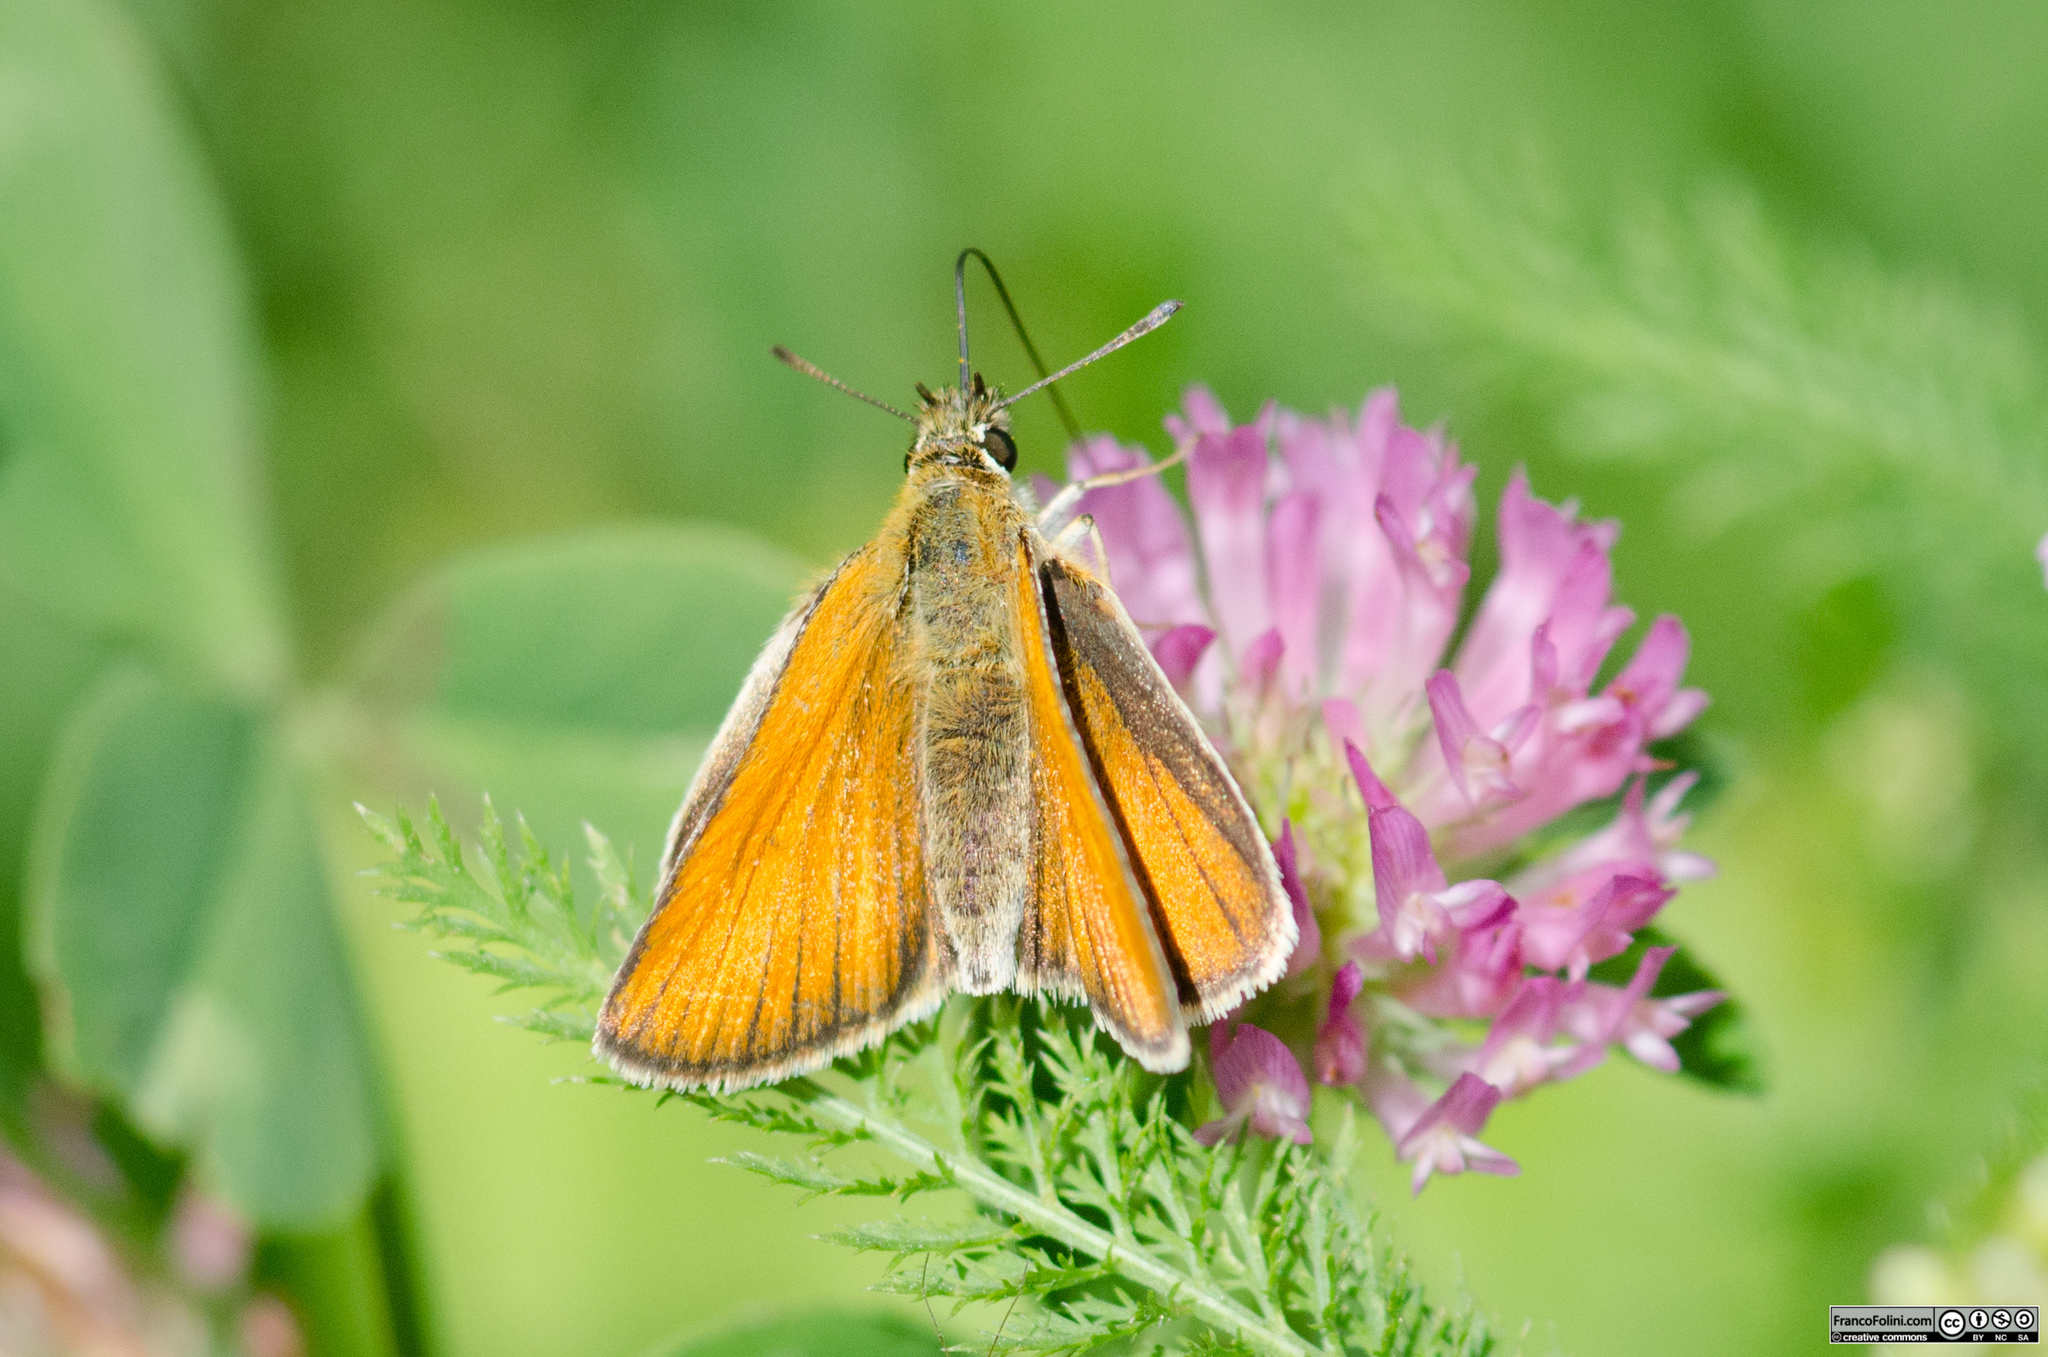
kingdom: Animalia
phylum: Arthropoda
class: Insecta
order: Lepidoptera
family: Hesperiidae
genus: Thymelicus
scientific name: Thymelicus lineola
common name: Essex skipper
